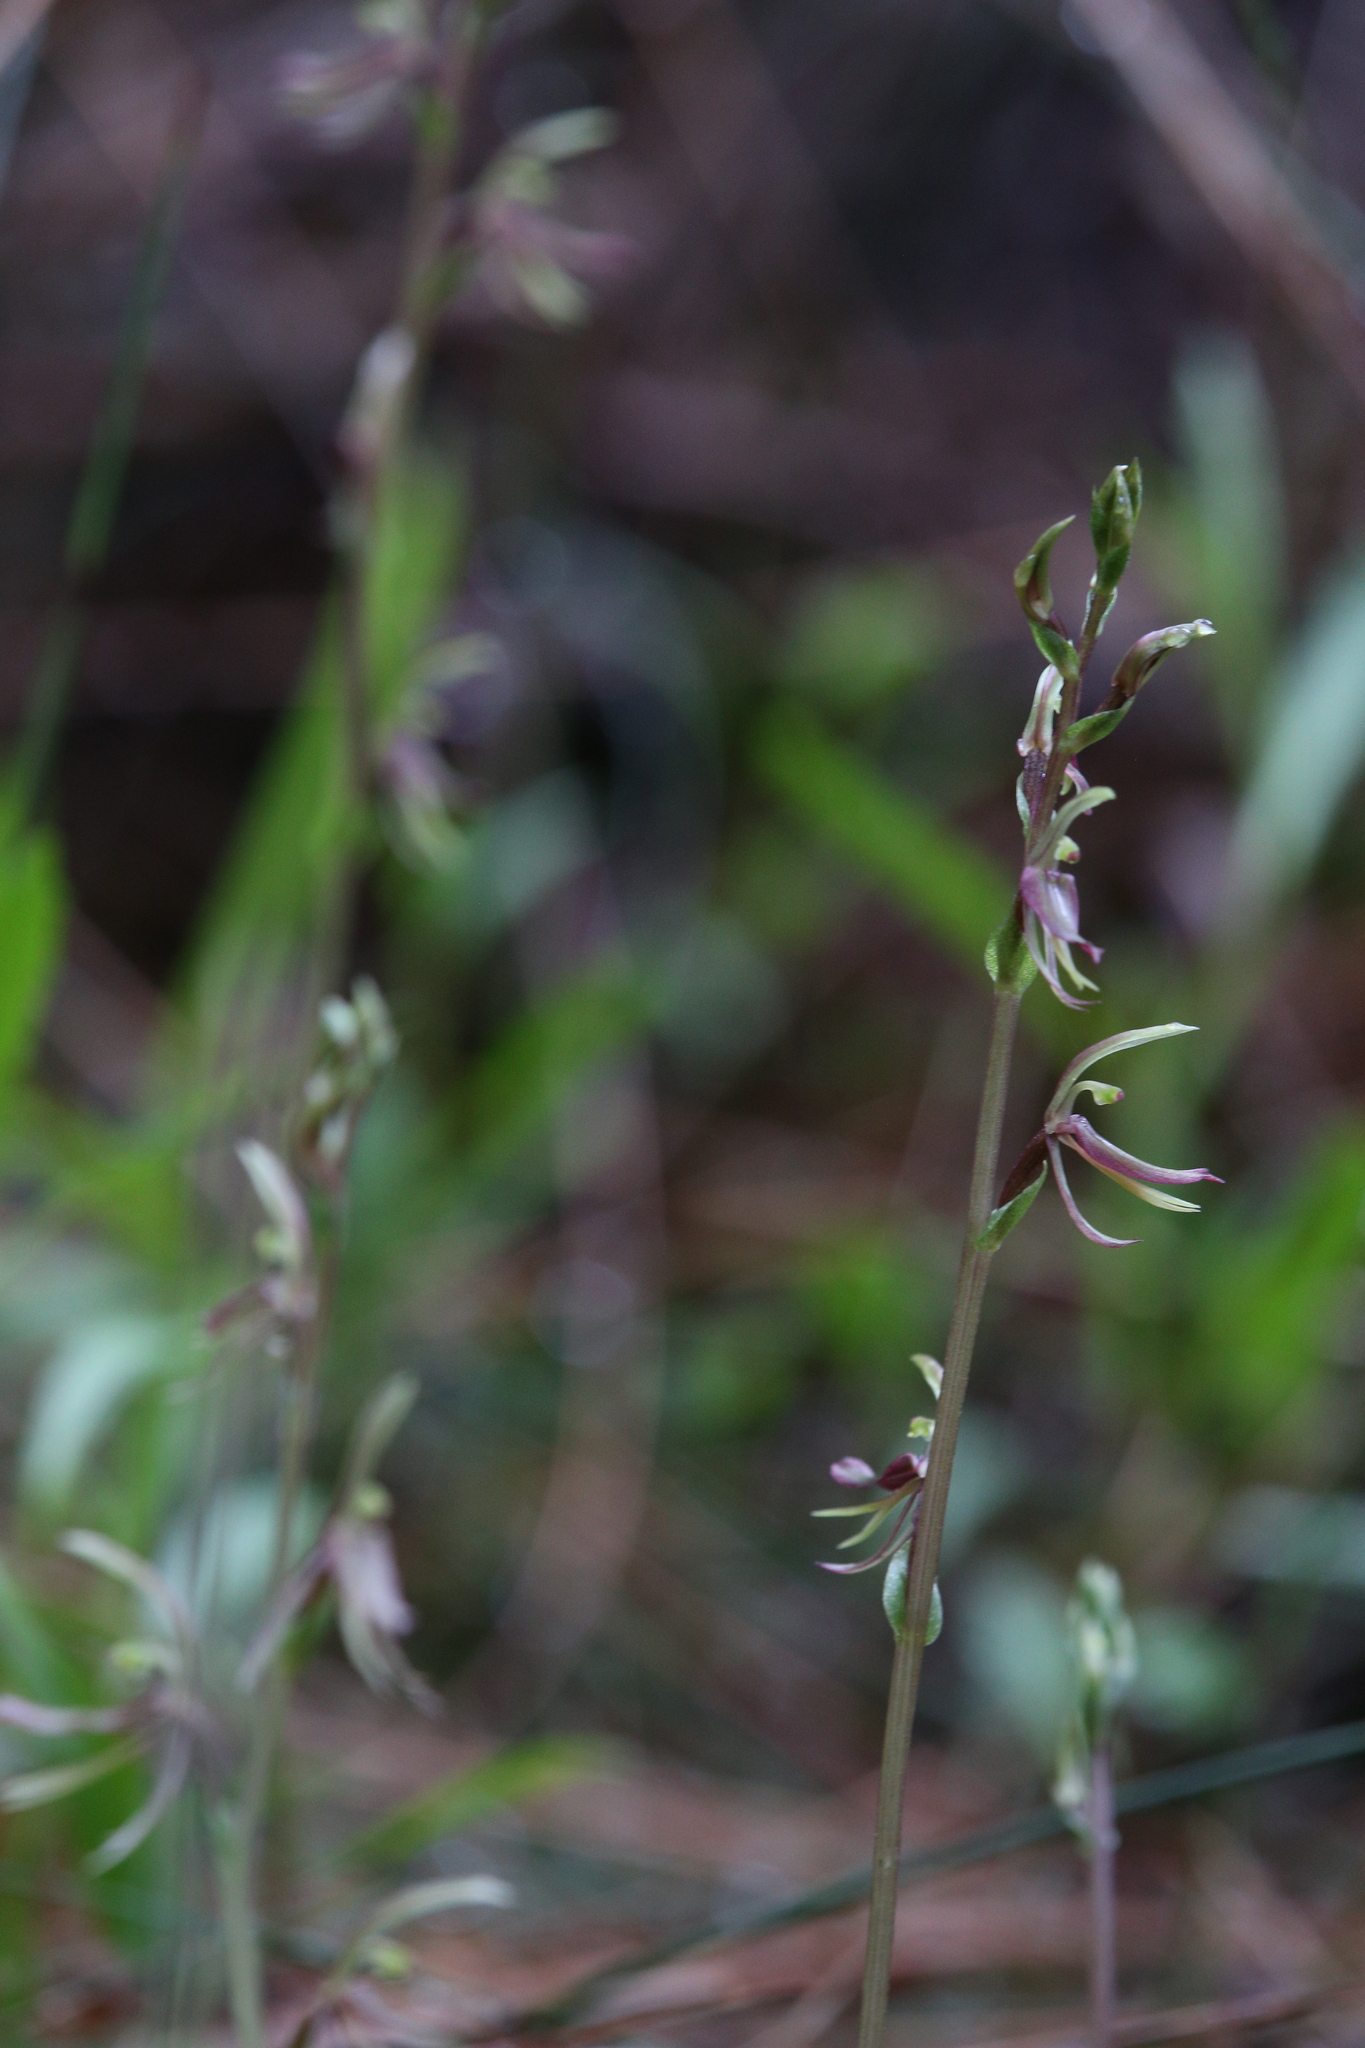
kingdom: Plantae
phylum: Tracheophyta
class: Liliopsida
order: Asparagales
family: Orchidaceae
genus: Cyrtostylis
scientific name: Cyrtostylis huegelii
